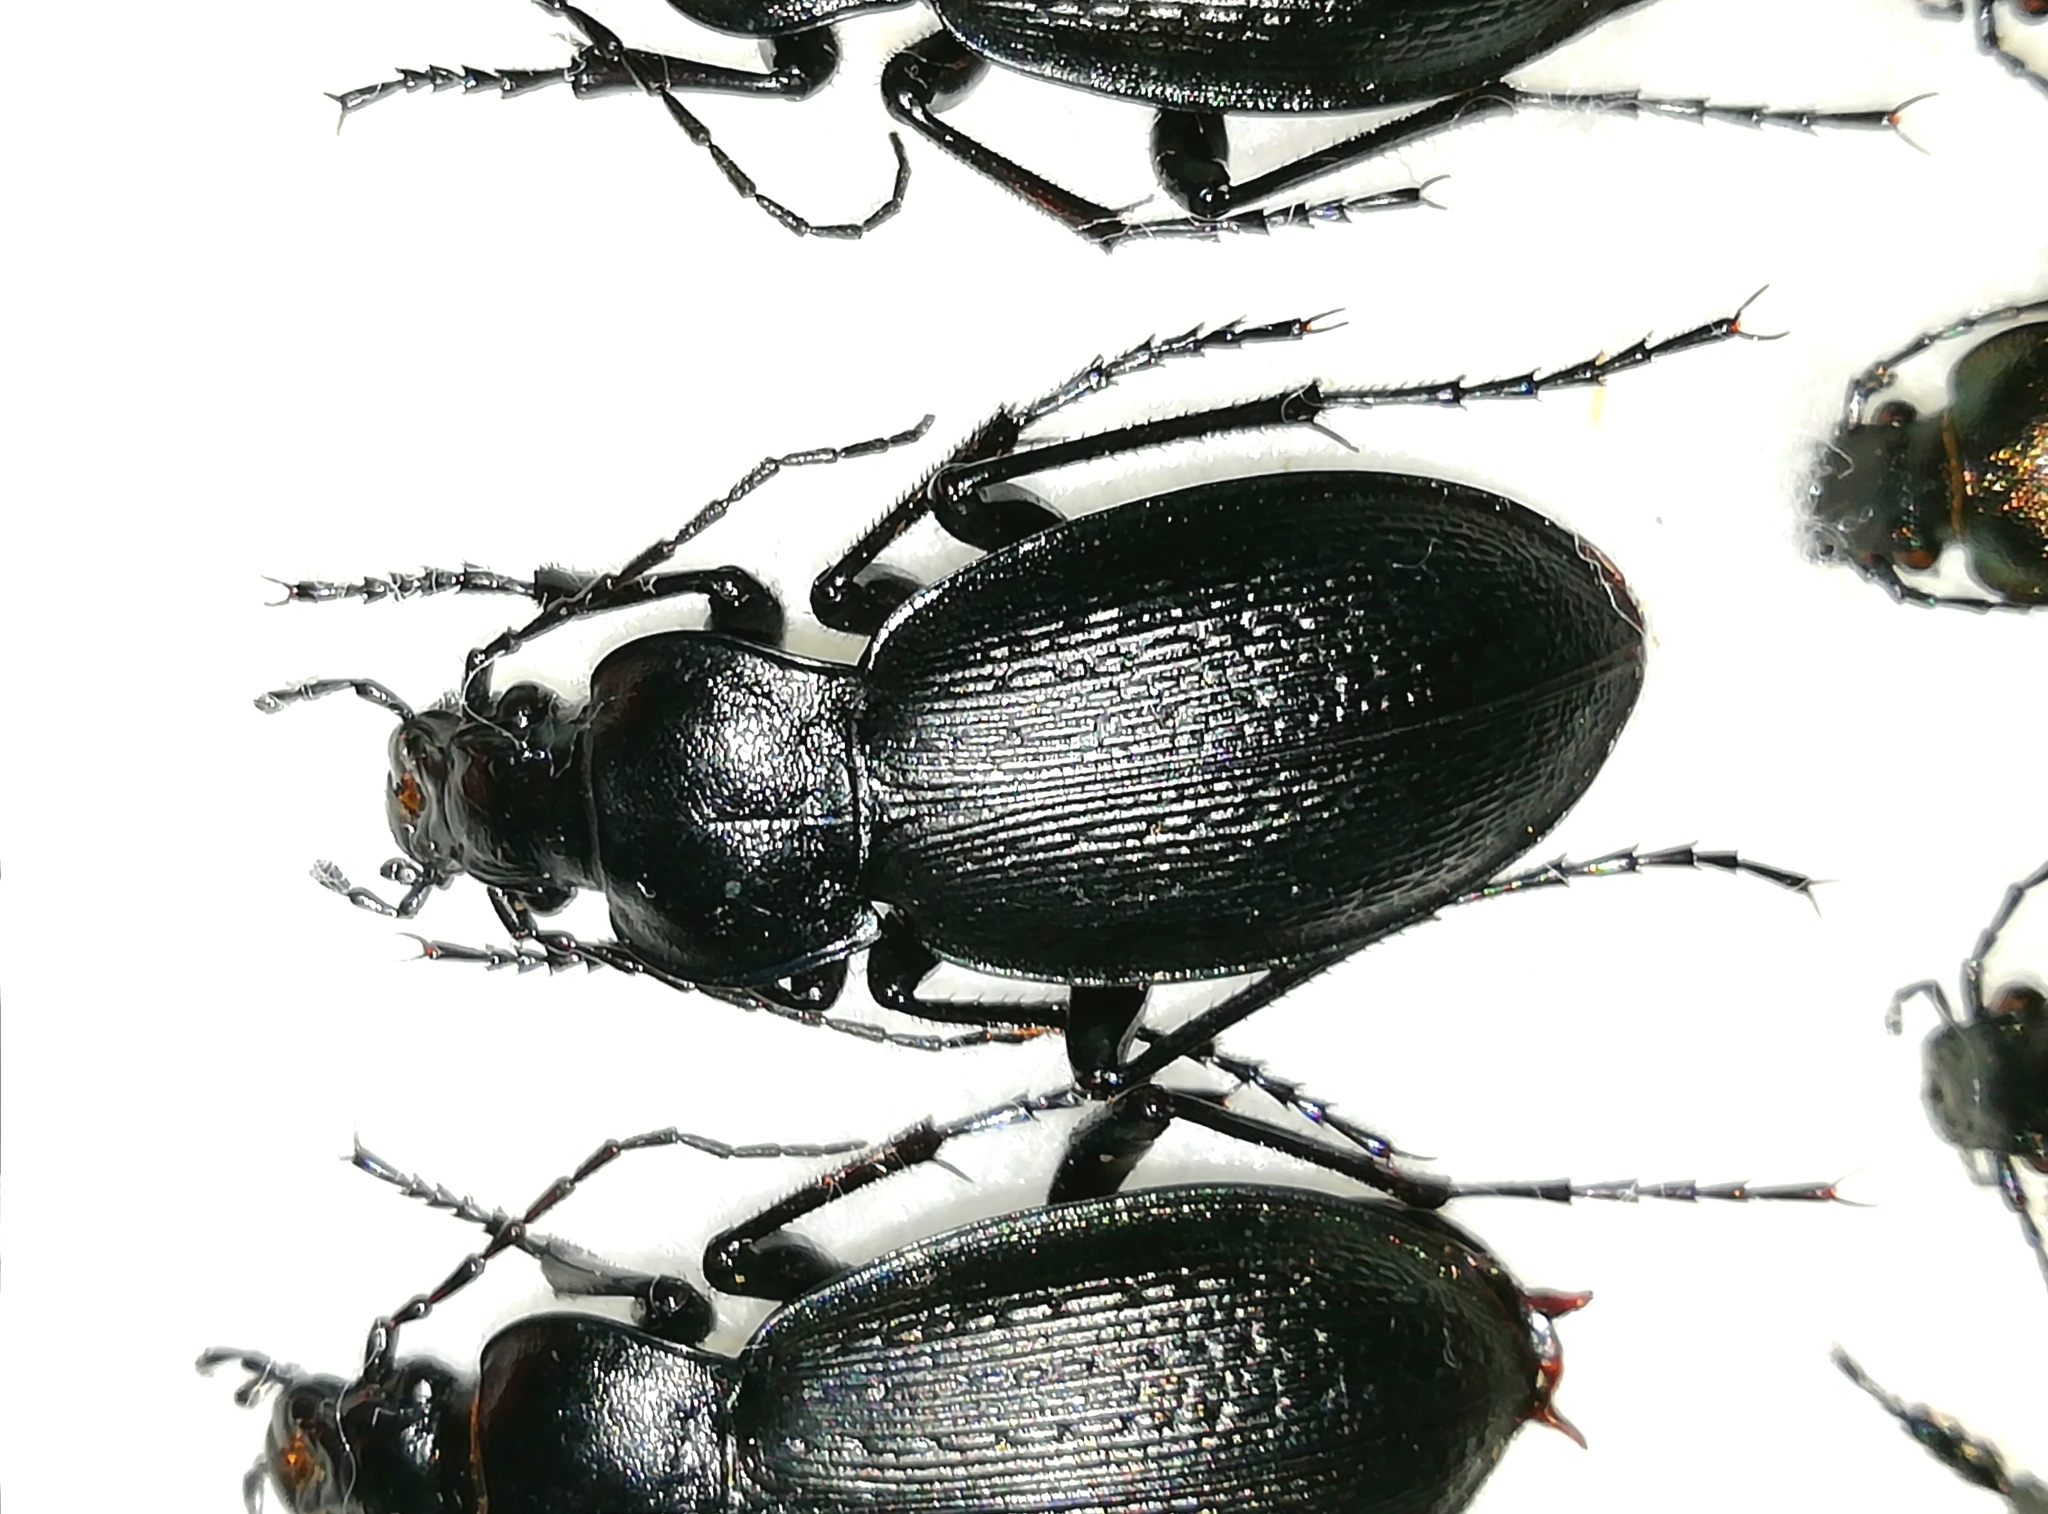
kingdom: Animalia
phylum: Arthropoda
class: Insecta
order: Coleoptera
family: Carabidae
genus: Carabus
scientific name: Carabus spasskianus
